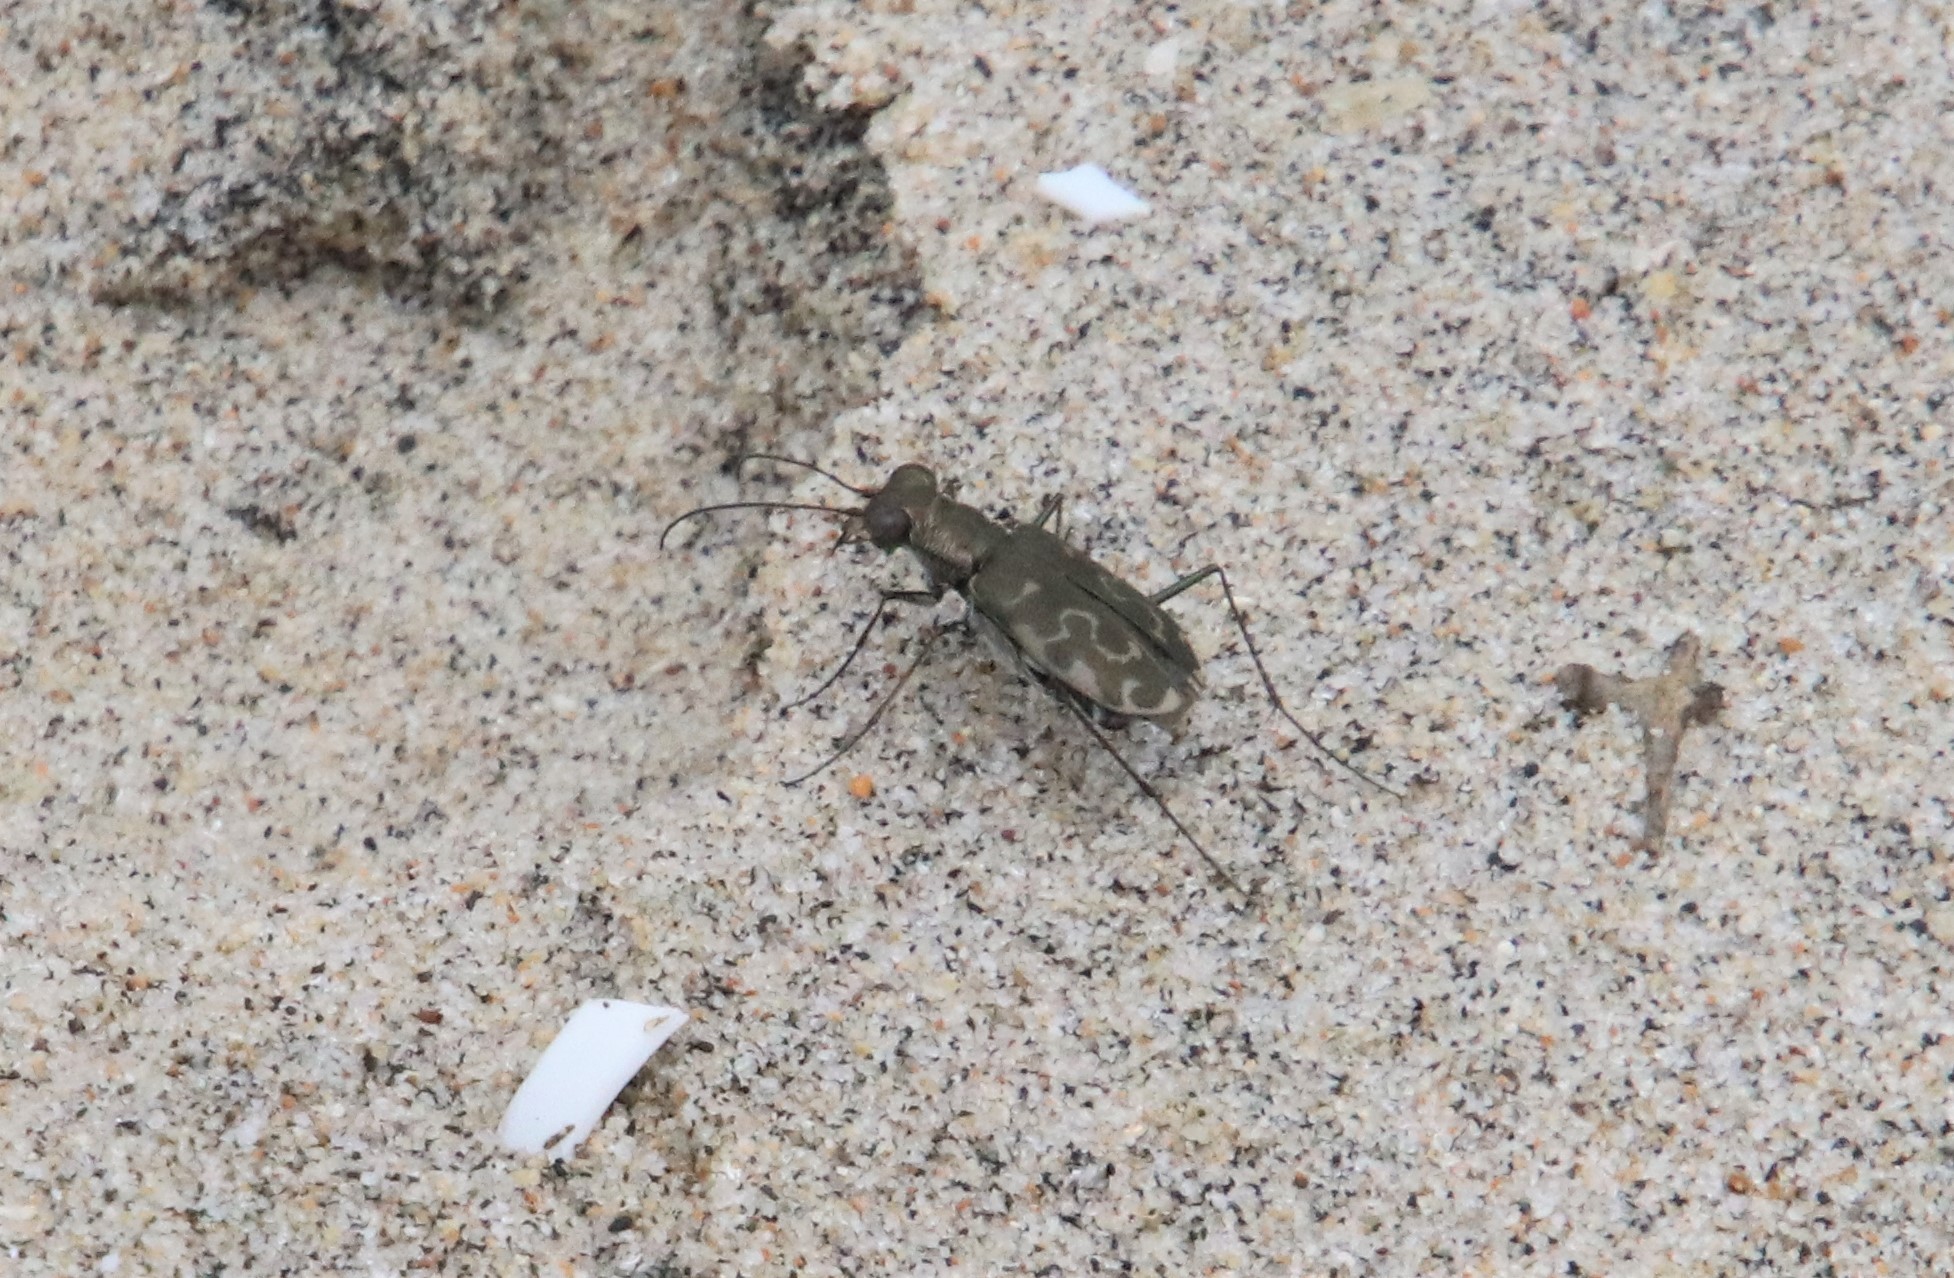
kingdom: Animalia
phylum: Arthropoda
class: Insecta
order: Coleoptera
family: Carabidae
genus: Cicindela
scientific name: Cicindela trifasciata
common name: Mudflat tiger beetle
